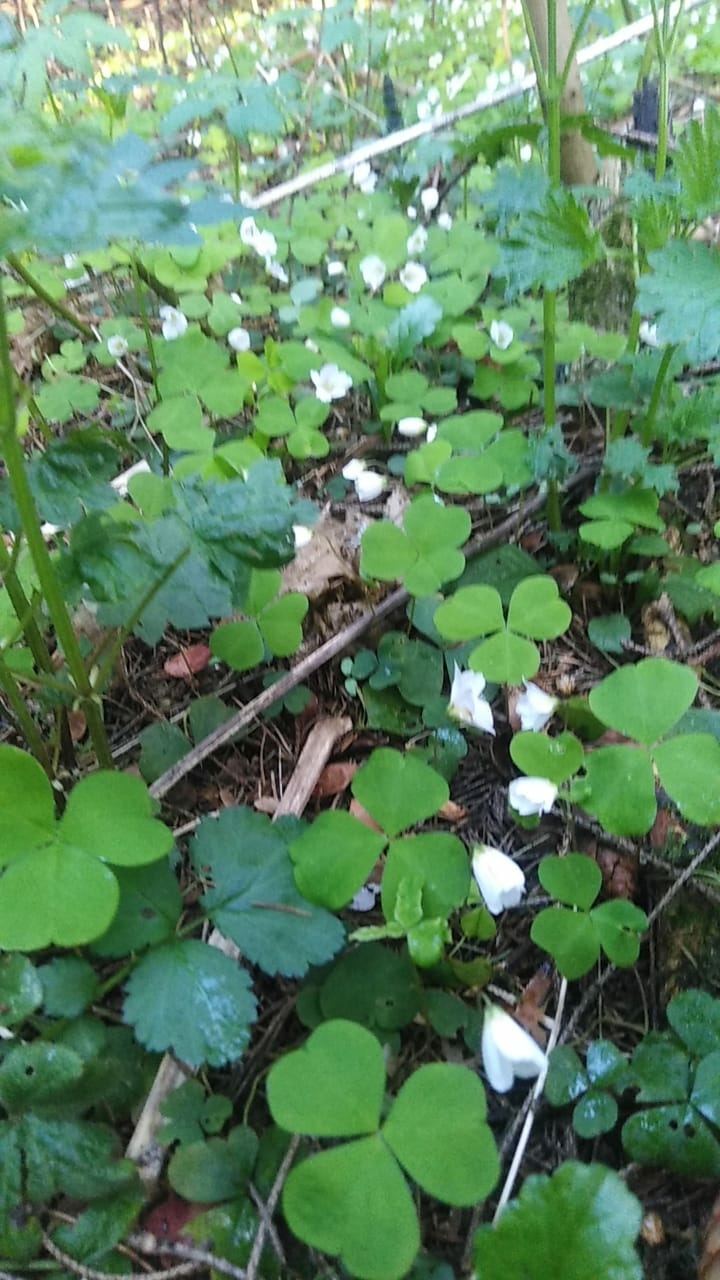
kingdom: Plantae
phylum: Tracheophyta
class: Magnoliopsida
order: Oxalidales
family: Oxalidaceae
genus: Oxalis
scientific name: Oxalis acetosella
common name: Wood-sorrel
